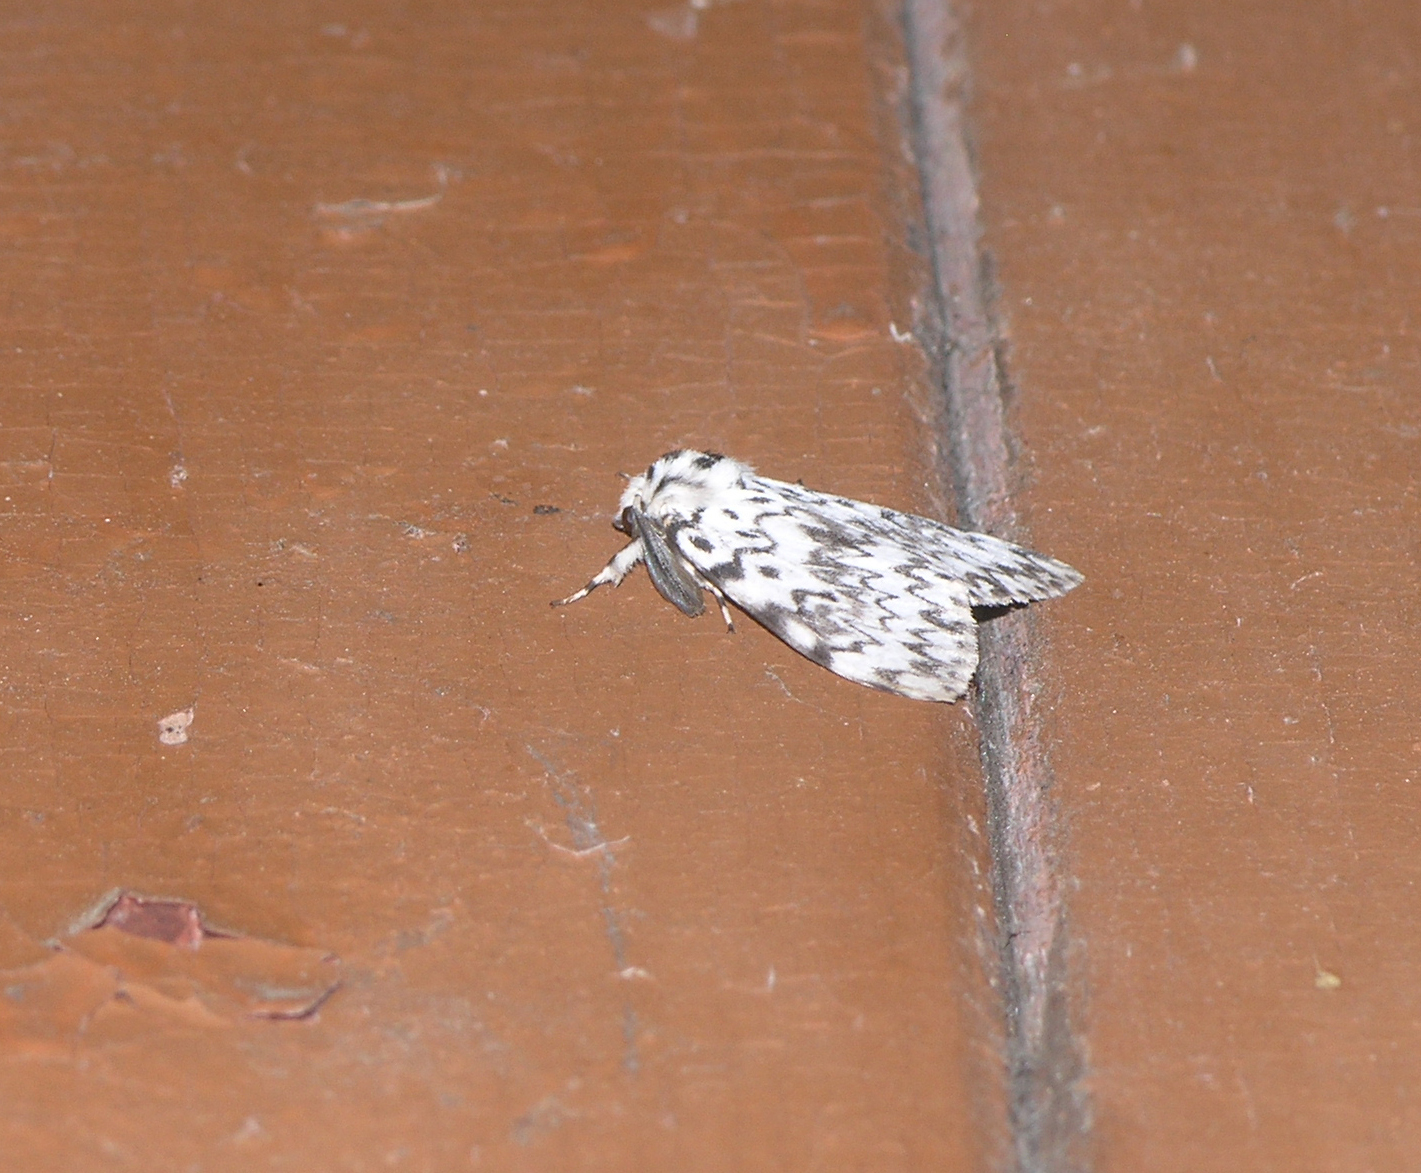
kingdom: Animalia
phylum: Arthropoda
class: Insecta
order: Lepidoptera
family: Erebidae
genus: Lymantria
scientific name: Lymantria monacha
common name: Black arches
